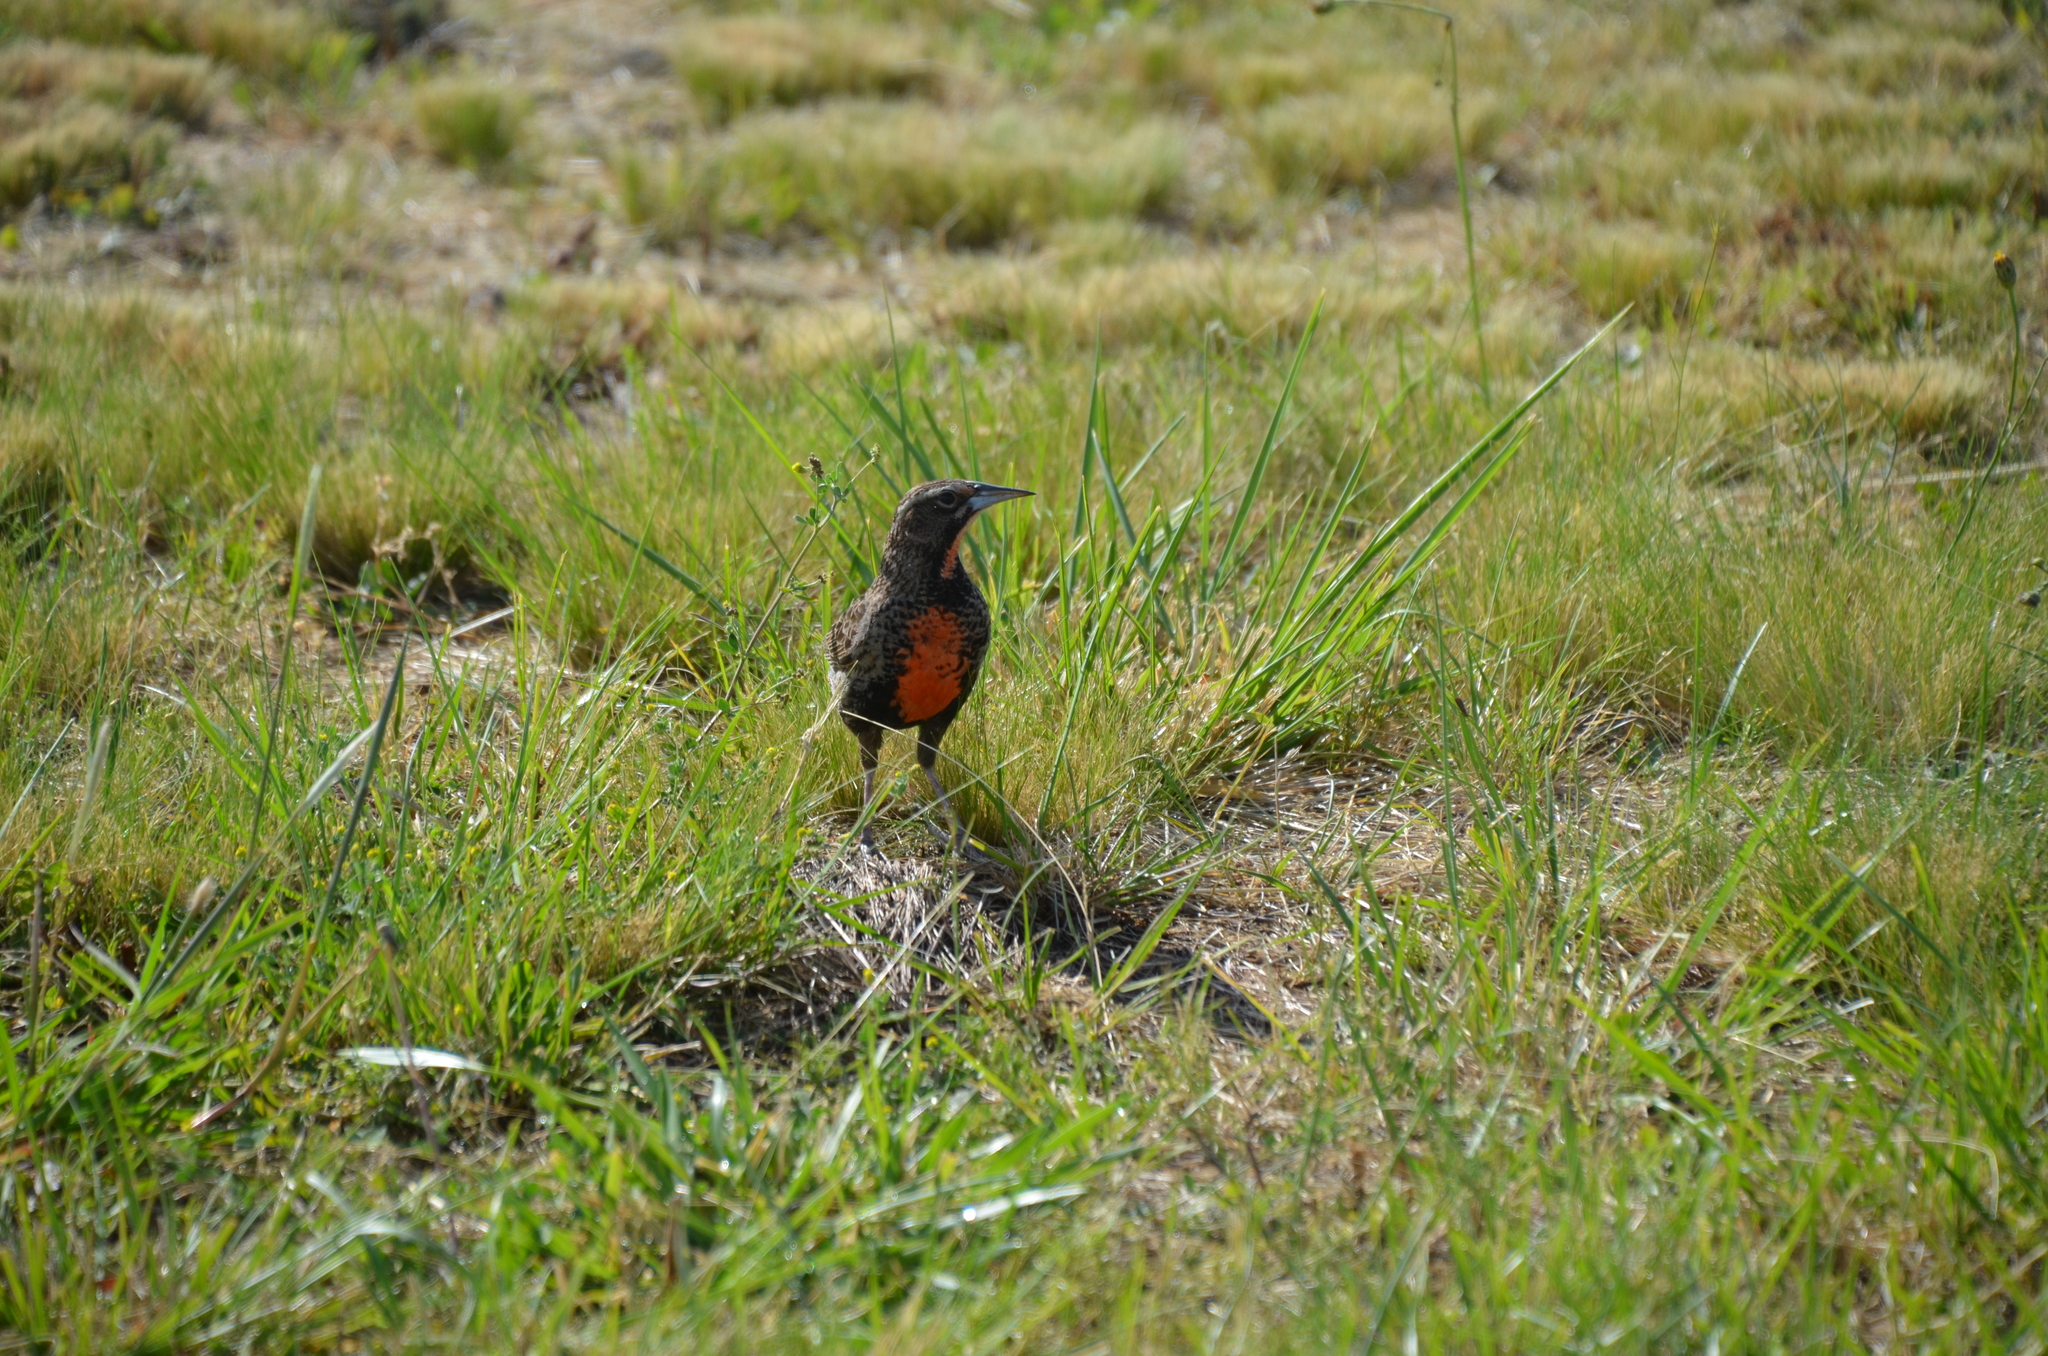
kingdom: Animalia
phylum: Chordata
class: Aves
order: Passeriformes
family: Icteridae
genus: Leistes
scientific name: Leistes
